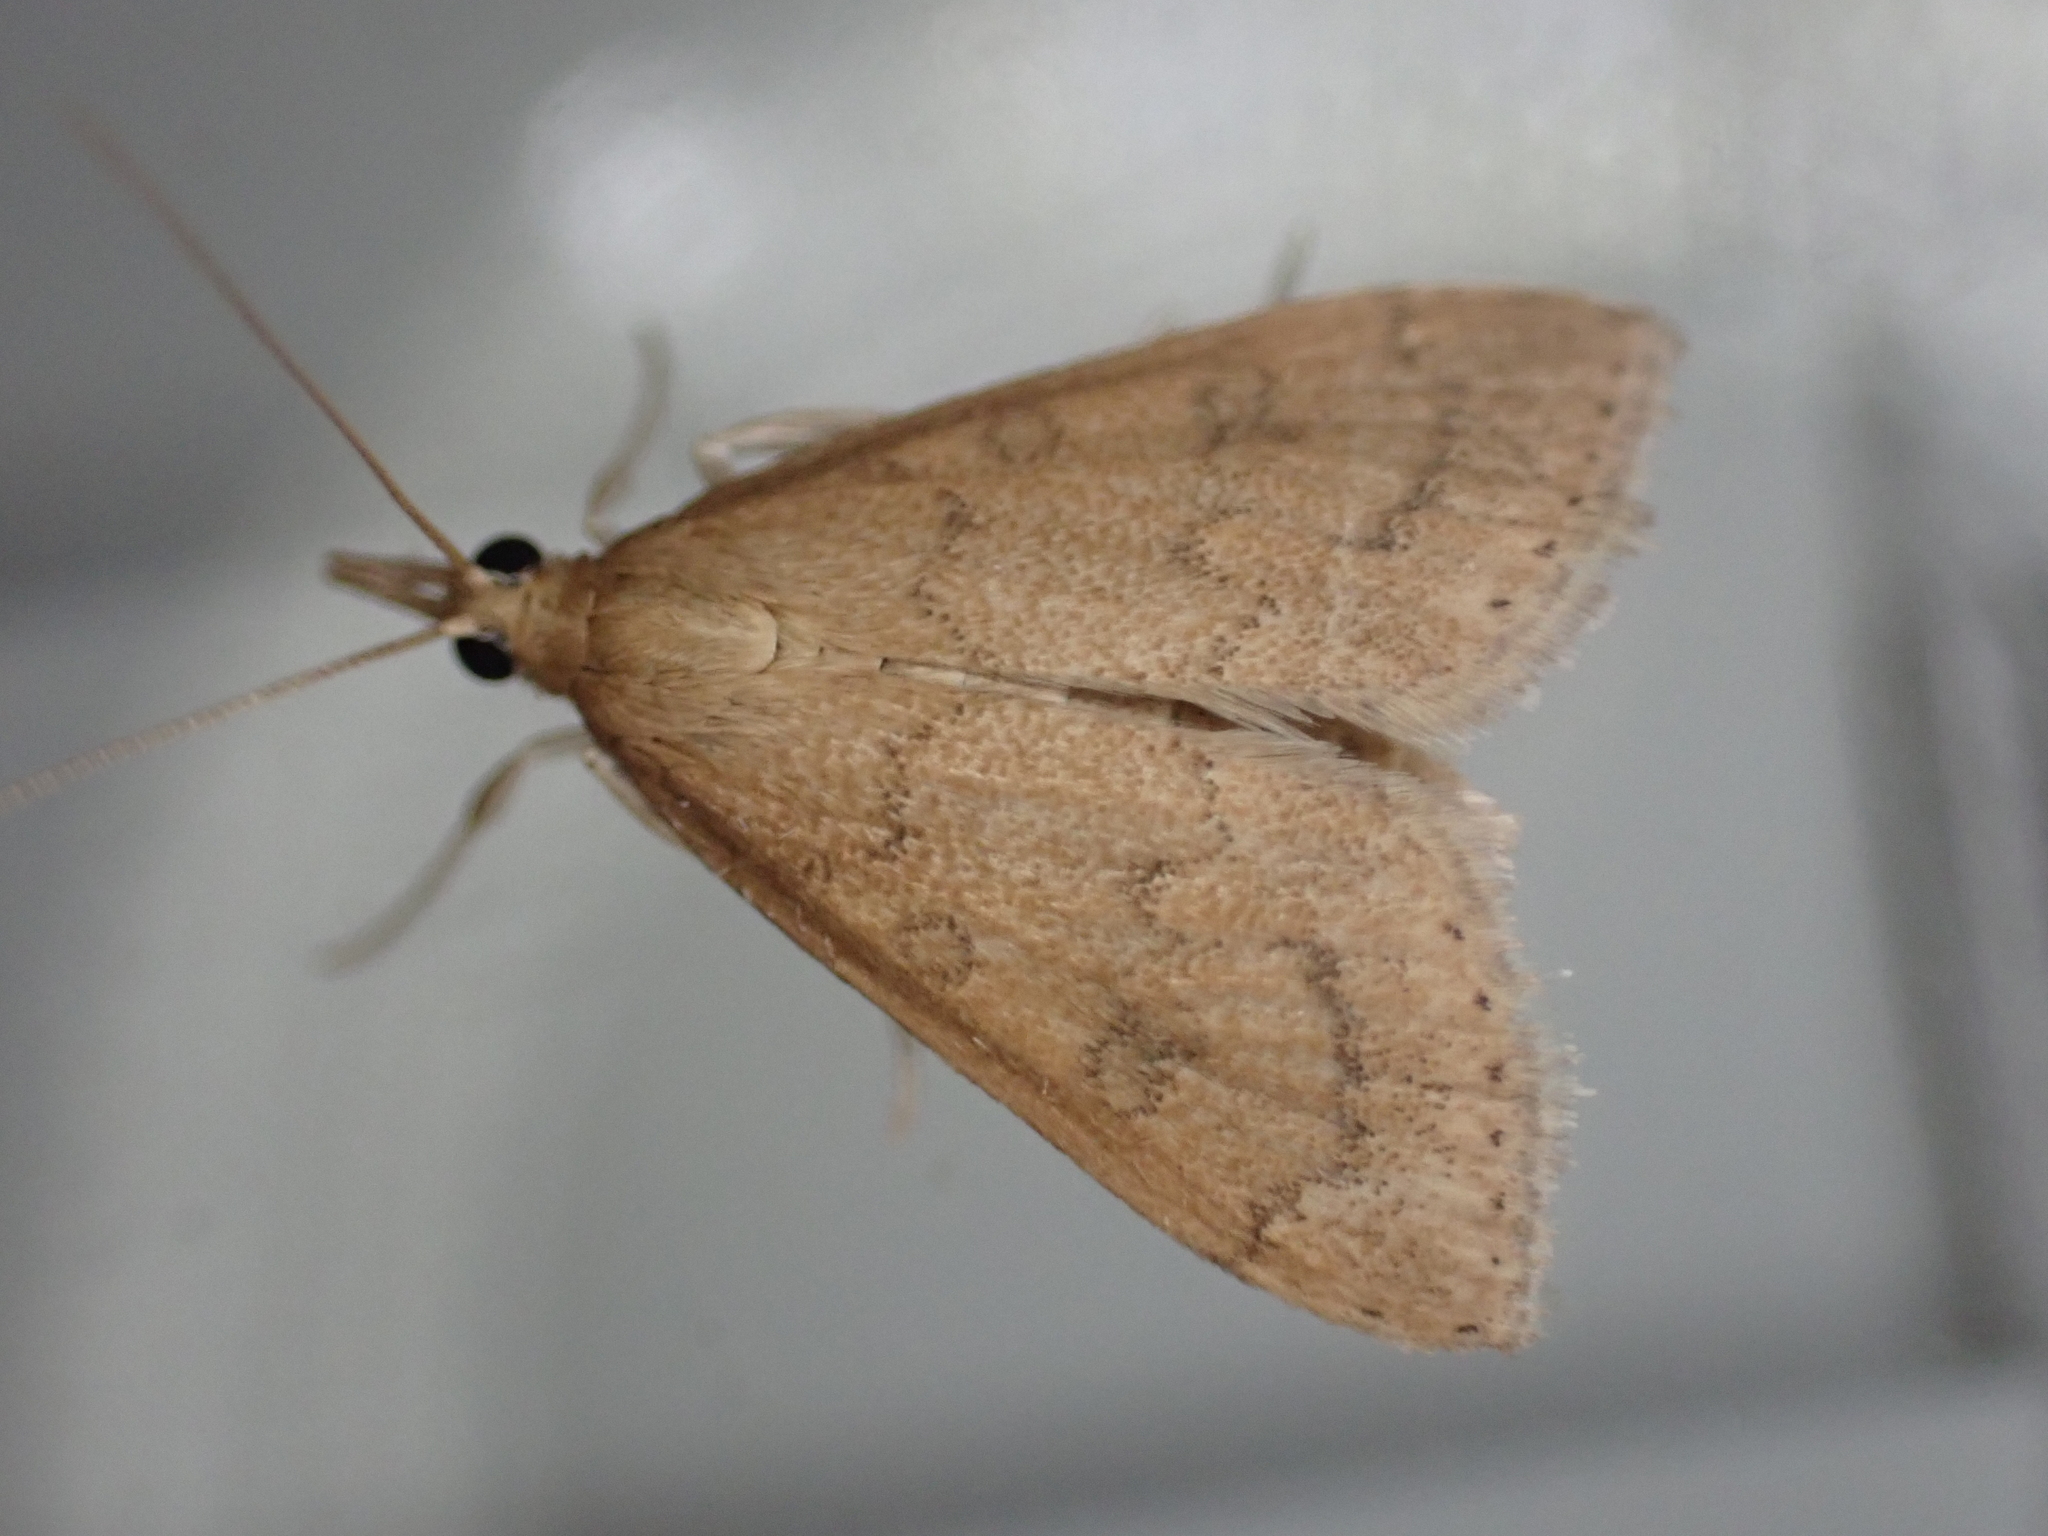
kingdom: Animalia
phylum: Arthropoda
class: Insecta
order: Lepidoptera
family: Crambidae
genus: Udea
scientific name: Udea rubigalis
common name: Celery leaftier moth
